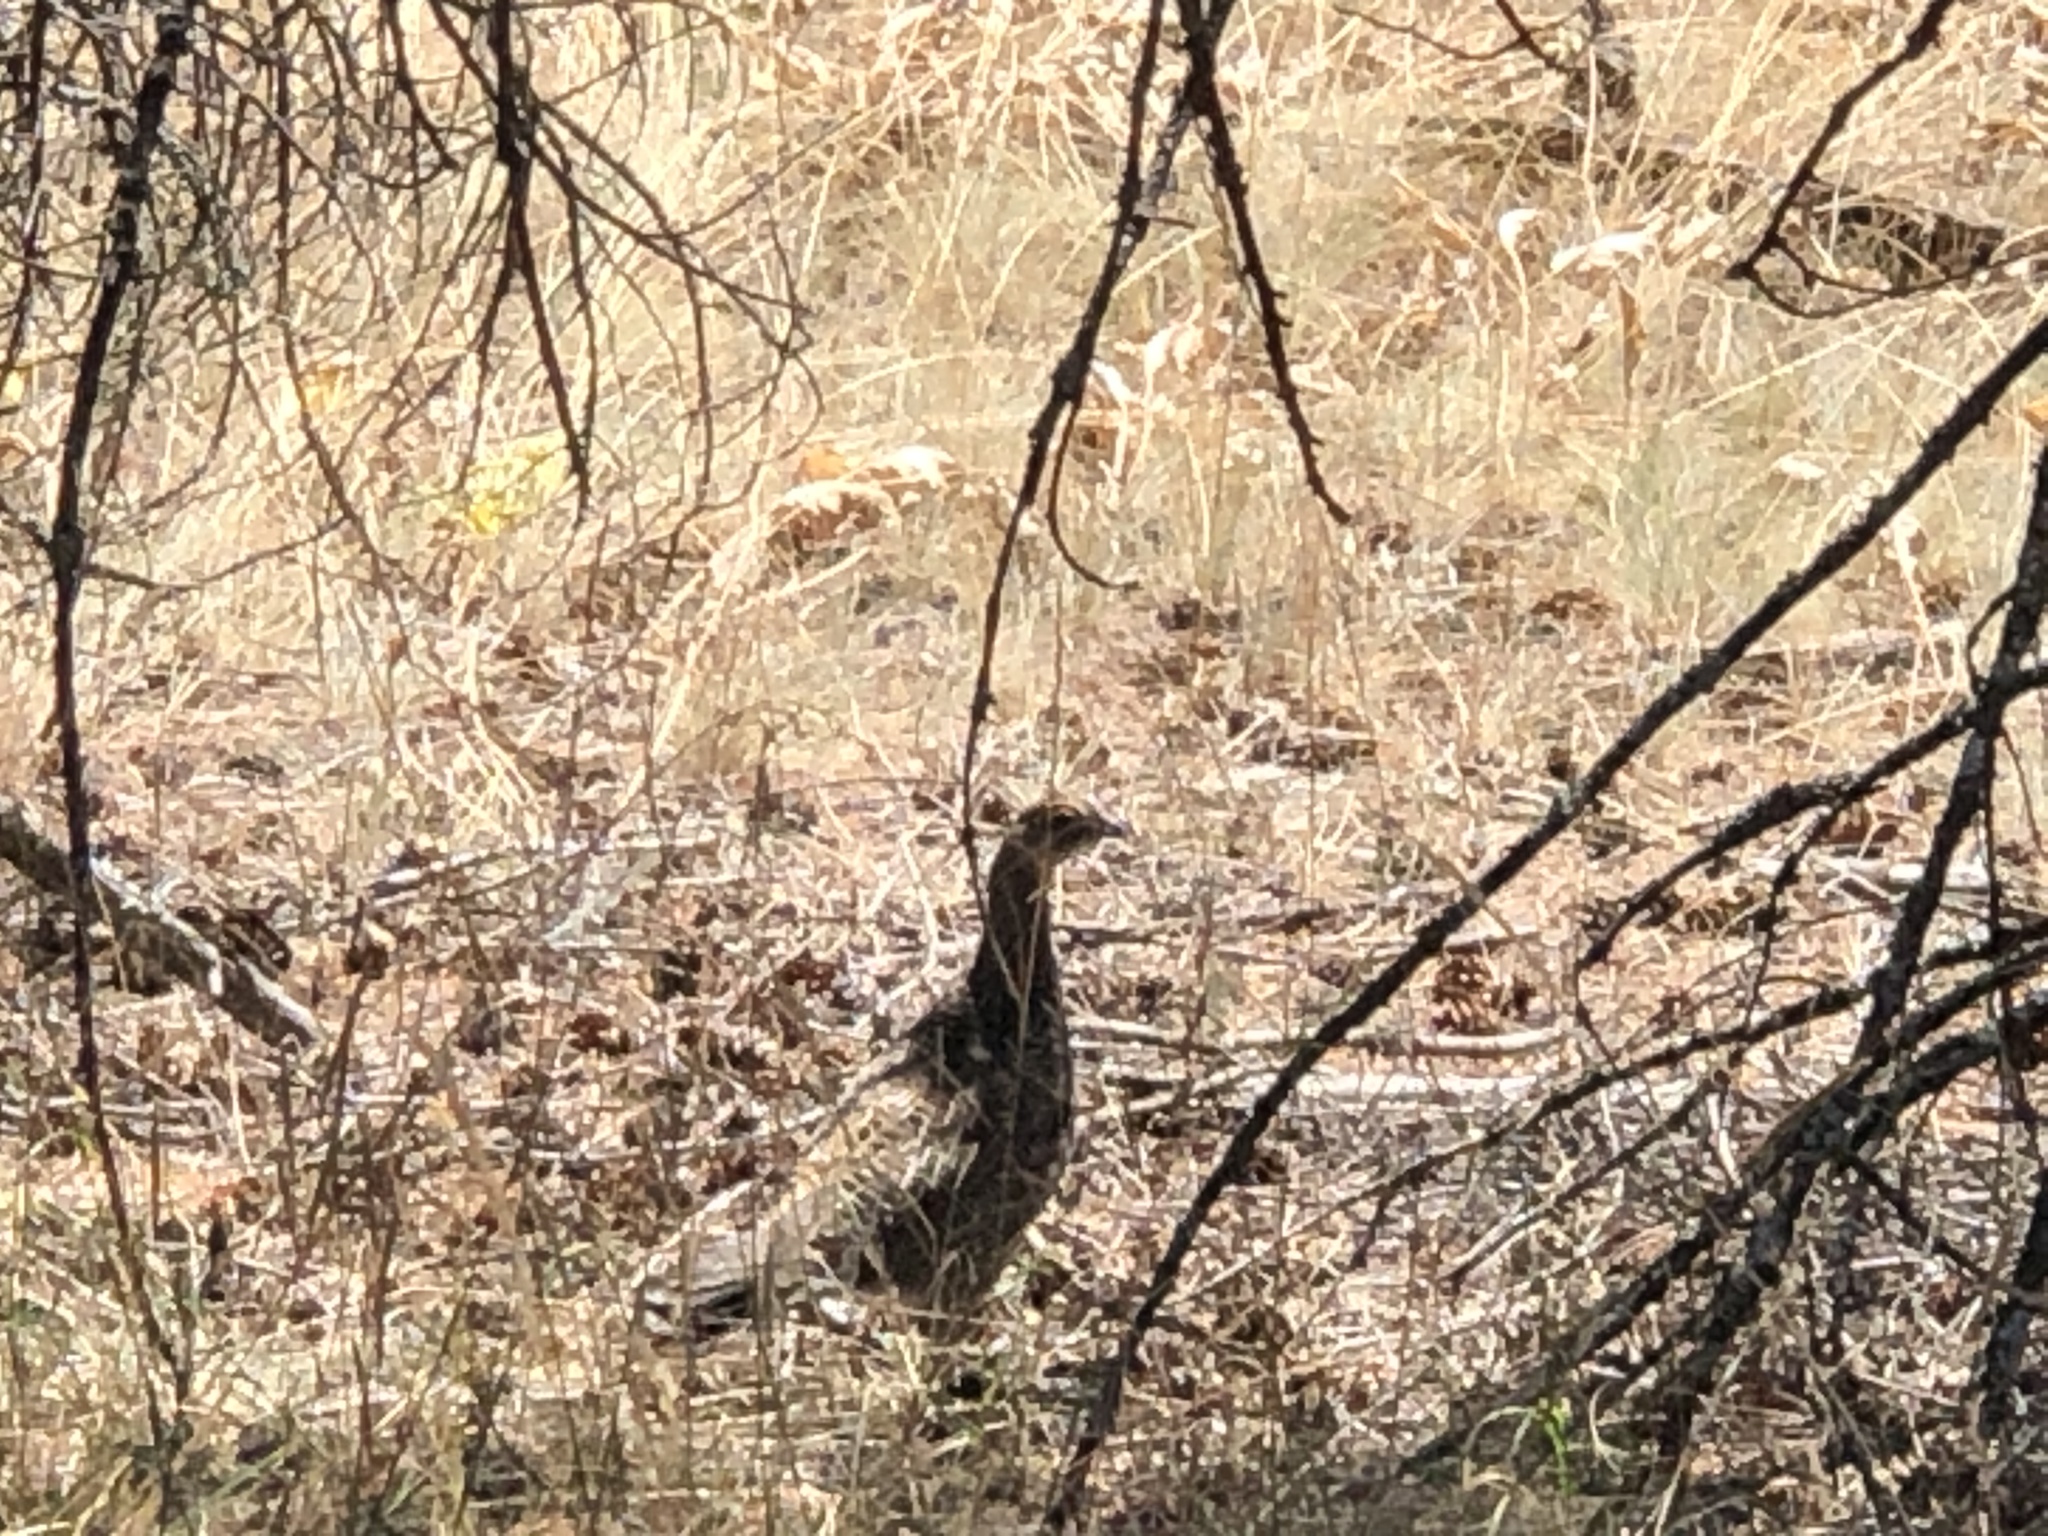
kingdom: Animalia
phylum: Chordata
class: Aves
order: Galliformes
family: Phasianidae
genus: Dendragapus
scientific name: Dendragapus obscurus
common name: Dusky grouse
